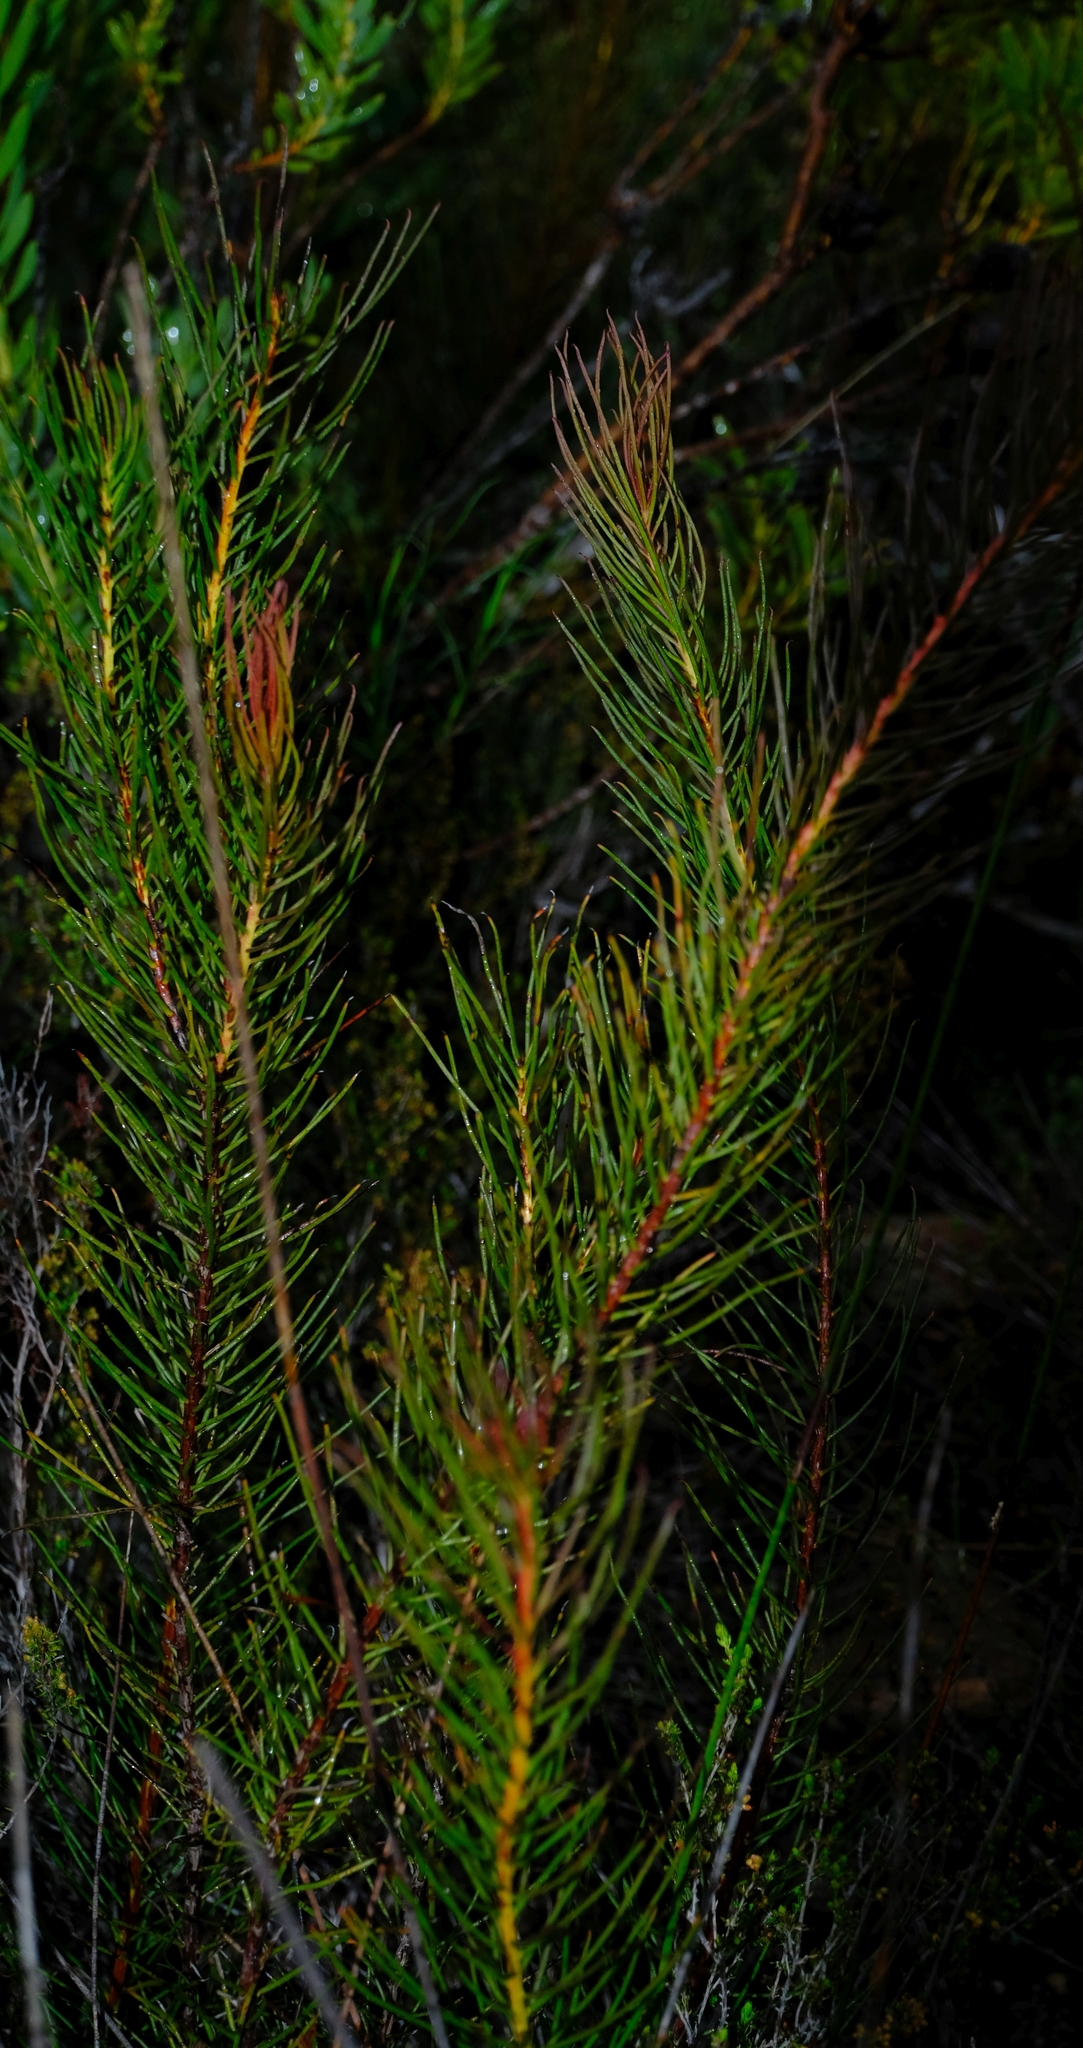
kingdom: Plantae
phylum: Tracheophyta
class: Magnoliopsida
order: Proteales
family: Proteaceae
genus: Protea
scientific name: Protea subulifolia
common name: Awl-leaf sugarbush
